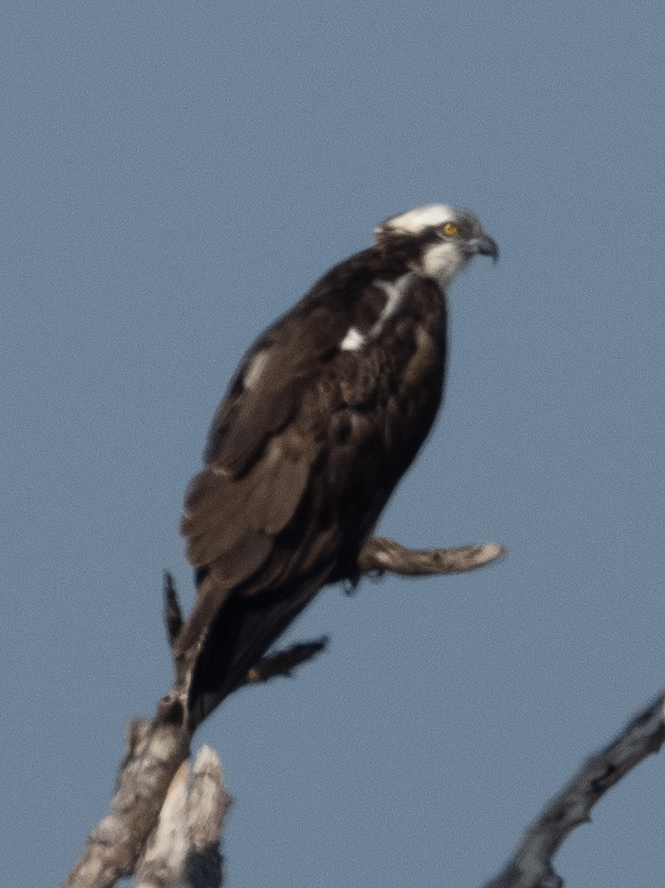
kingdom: Animalia
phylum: Chordata
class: Aves
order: Accipitriformes
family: Pandionidae
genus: Pandion
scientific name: Pandion haliaetus
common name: Osprey
